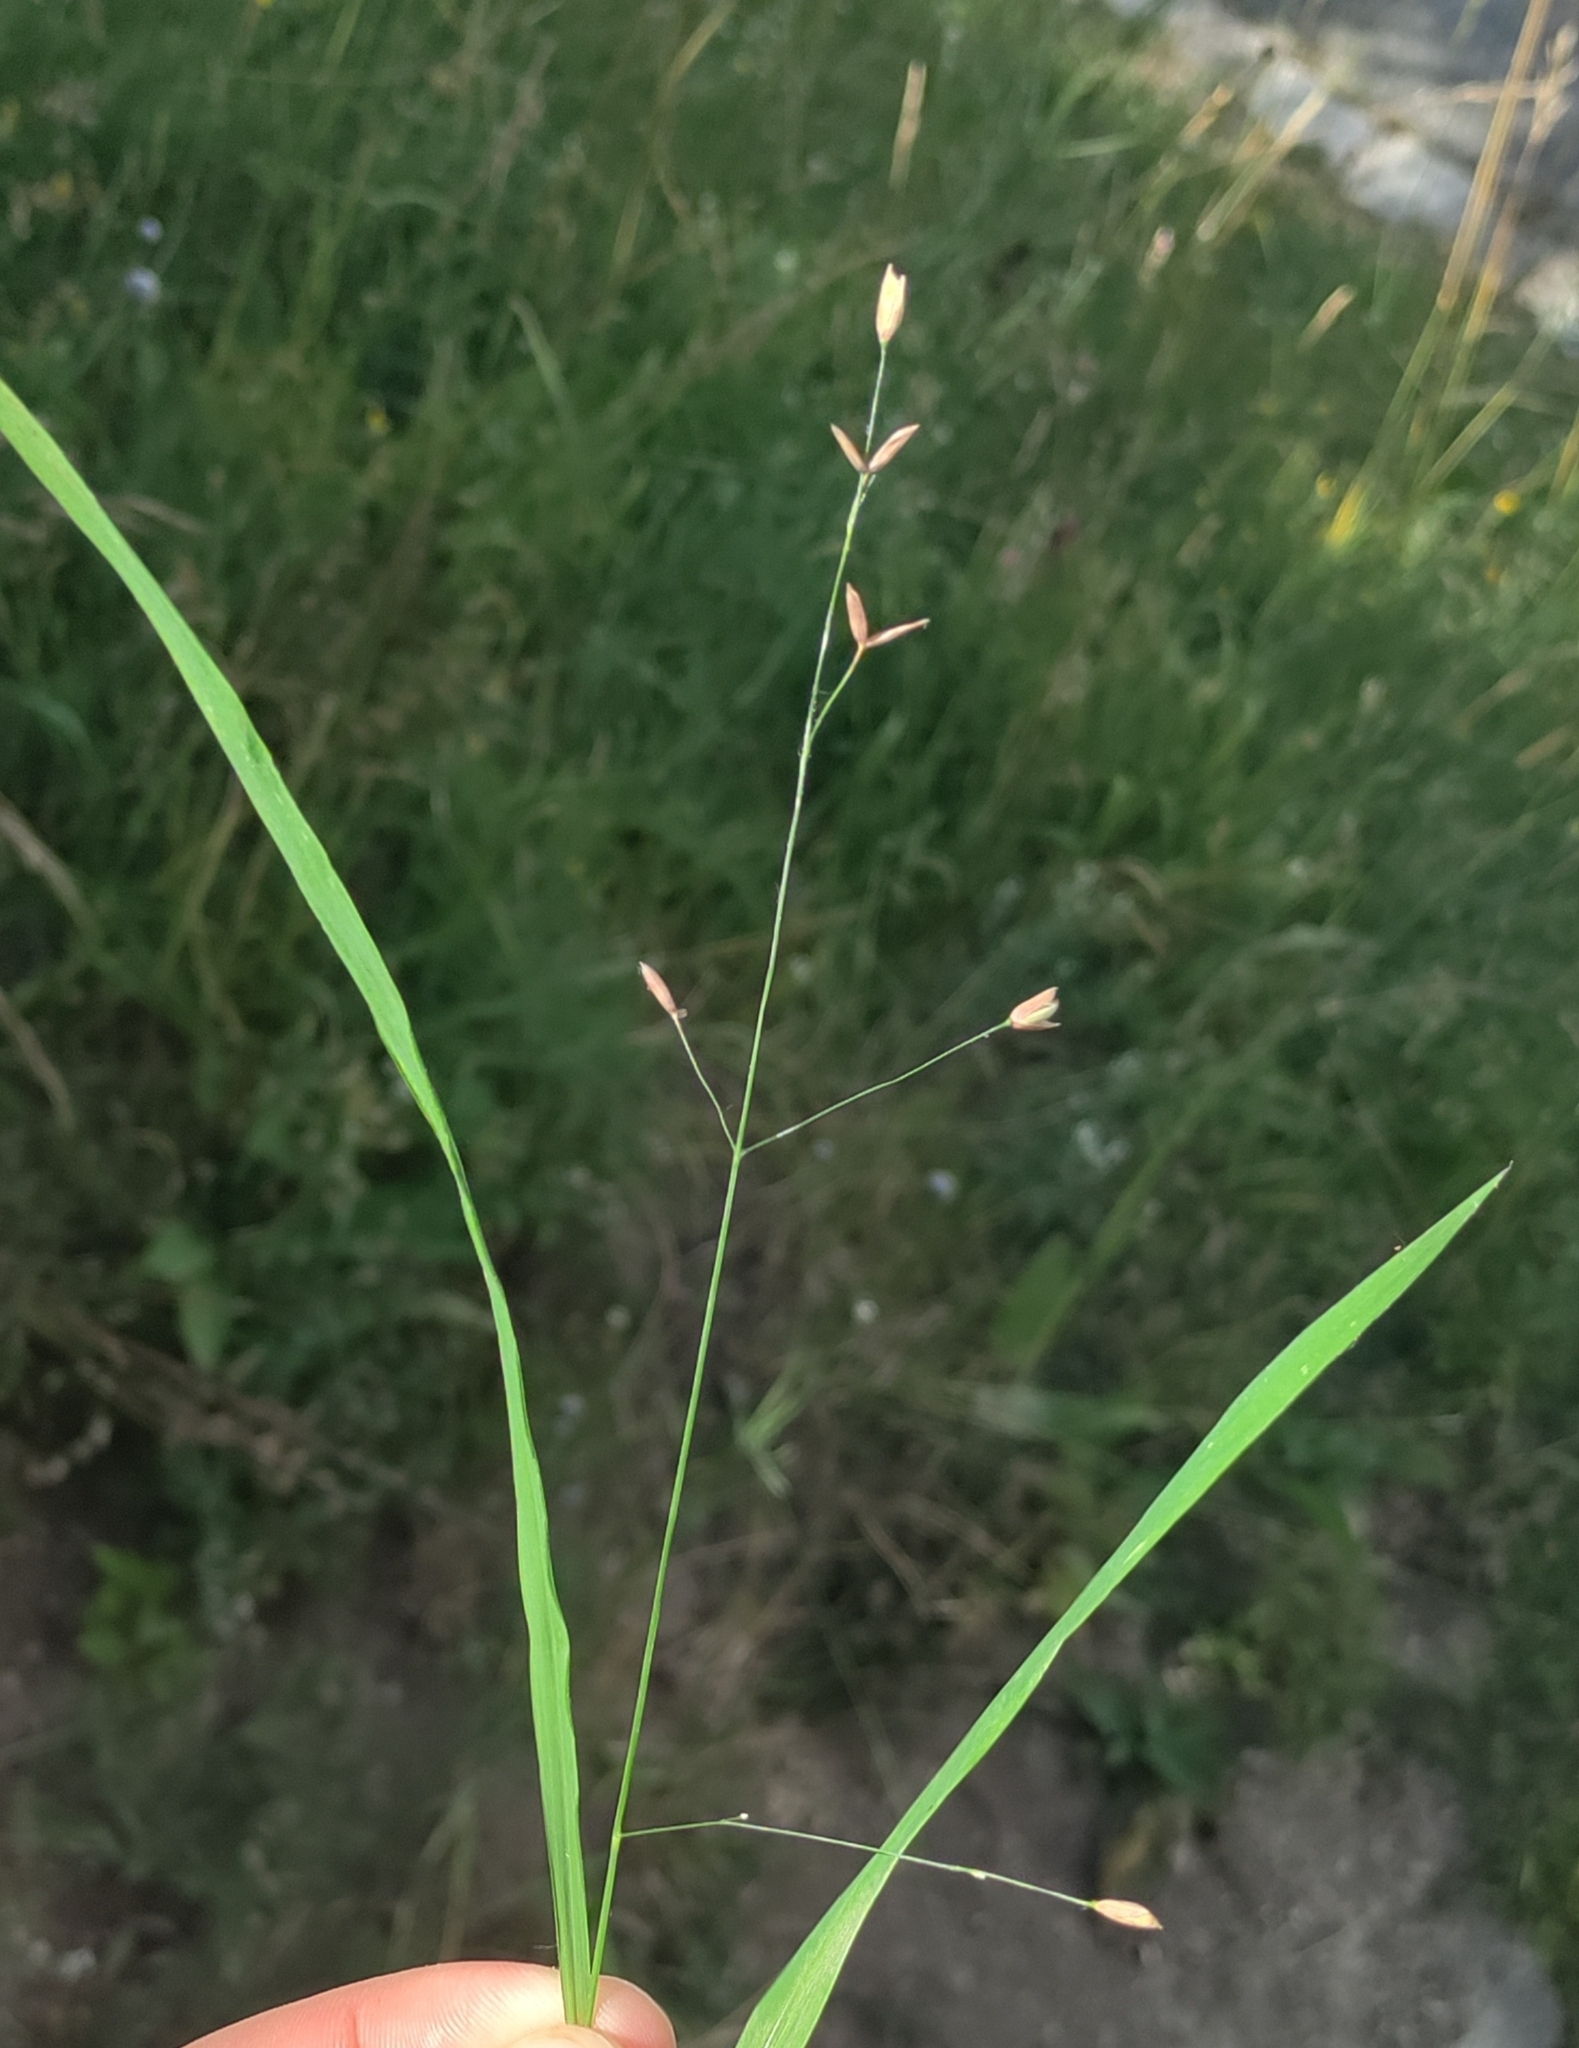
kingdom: Plantae
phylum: Tracheophyta
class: Liliopsida
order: Poales
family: Poaceae
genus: Melica
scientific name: Melica uniflora
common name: Wood melick
